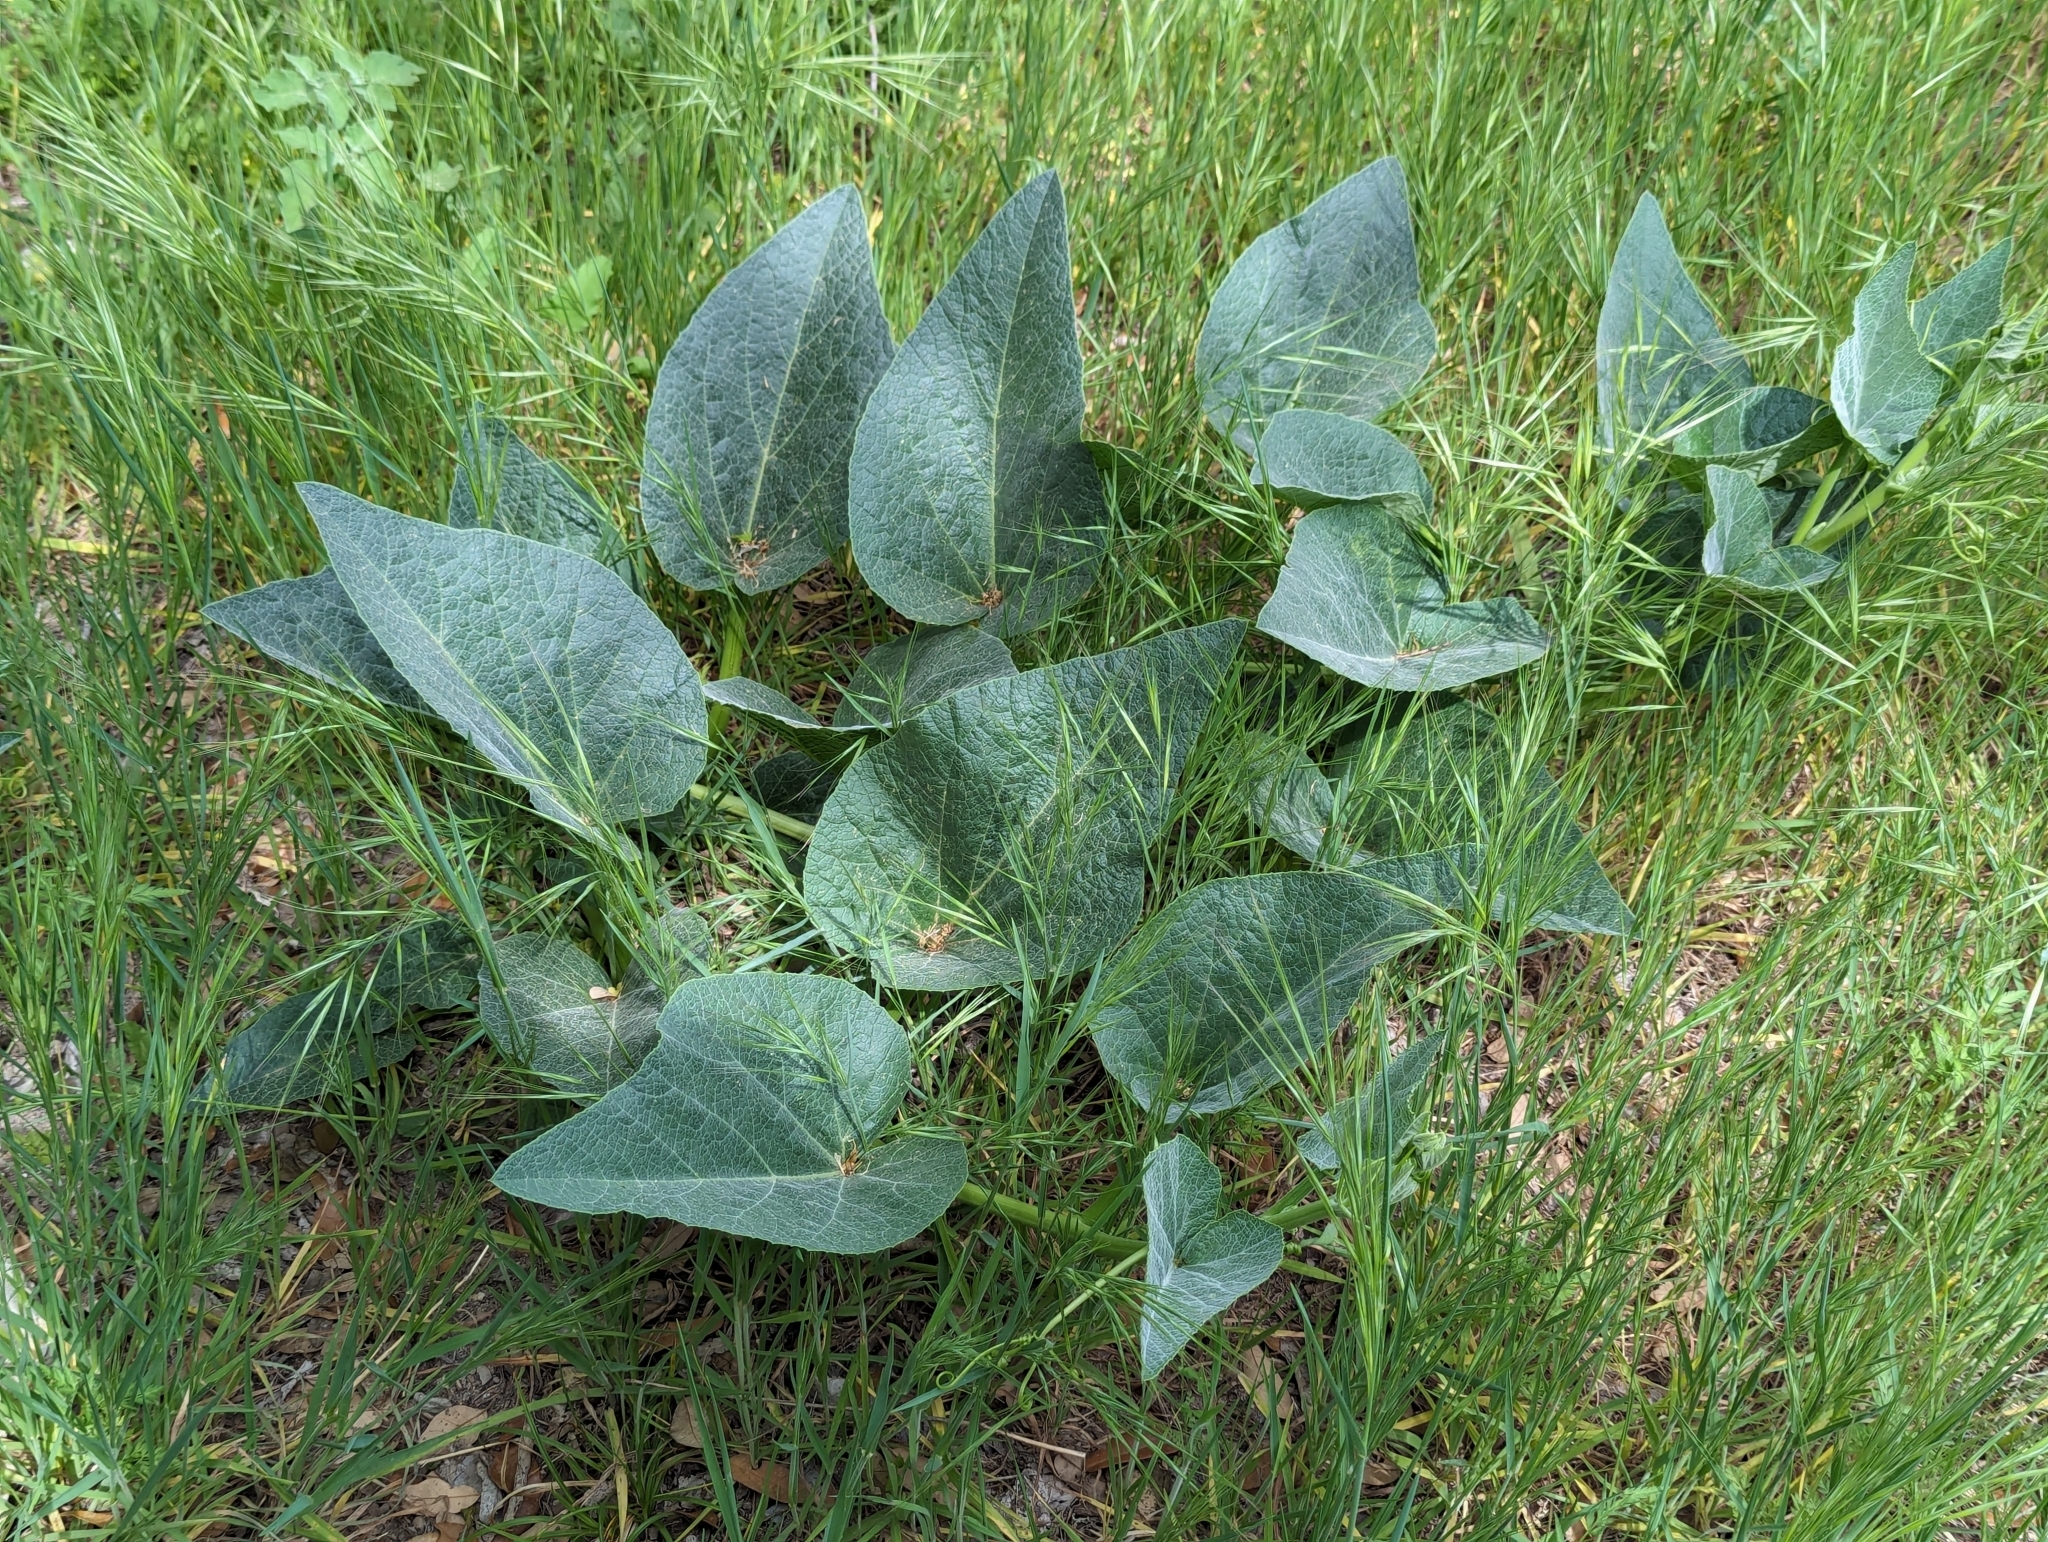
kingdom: Plantae
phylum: Tracheophyta
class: Magnoliopsida
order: Cucurbitales
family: Cucurbitaceae
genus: Cucurbita
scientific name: Cucurbita foetidissima
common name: Buffalo gourd
